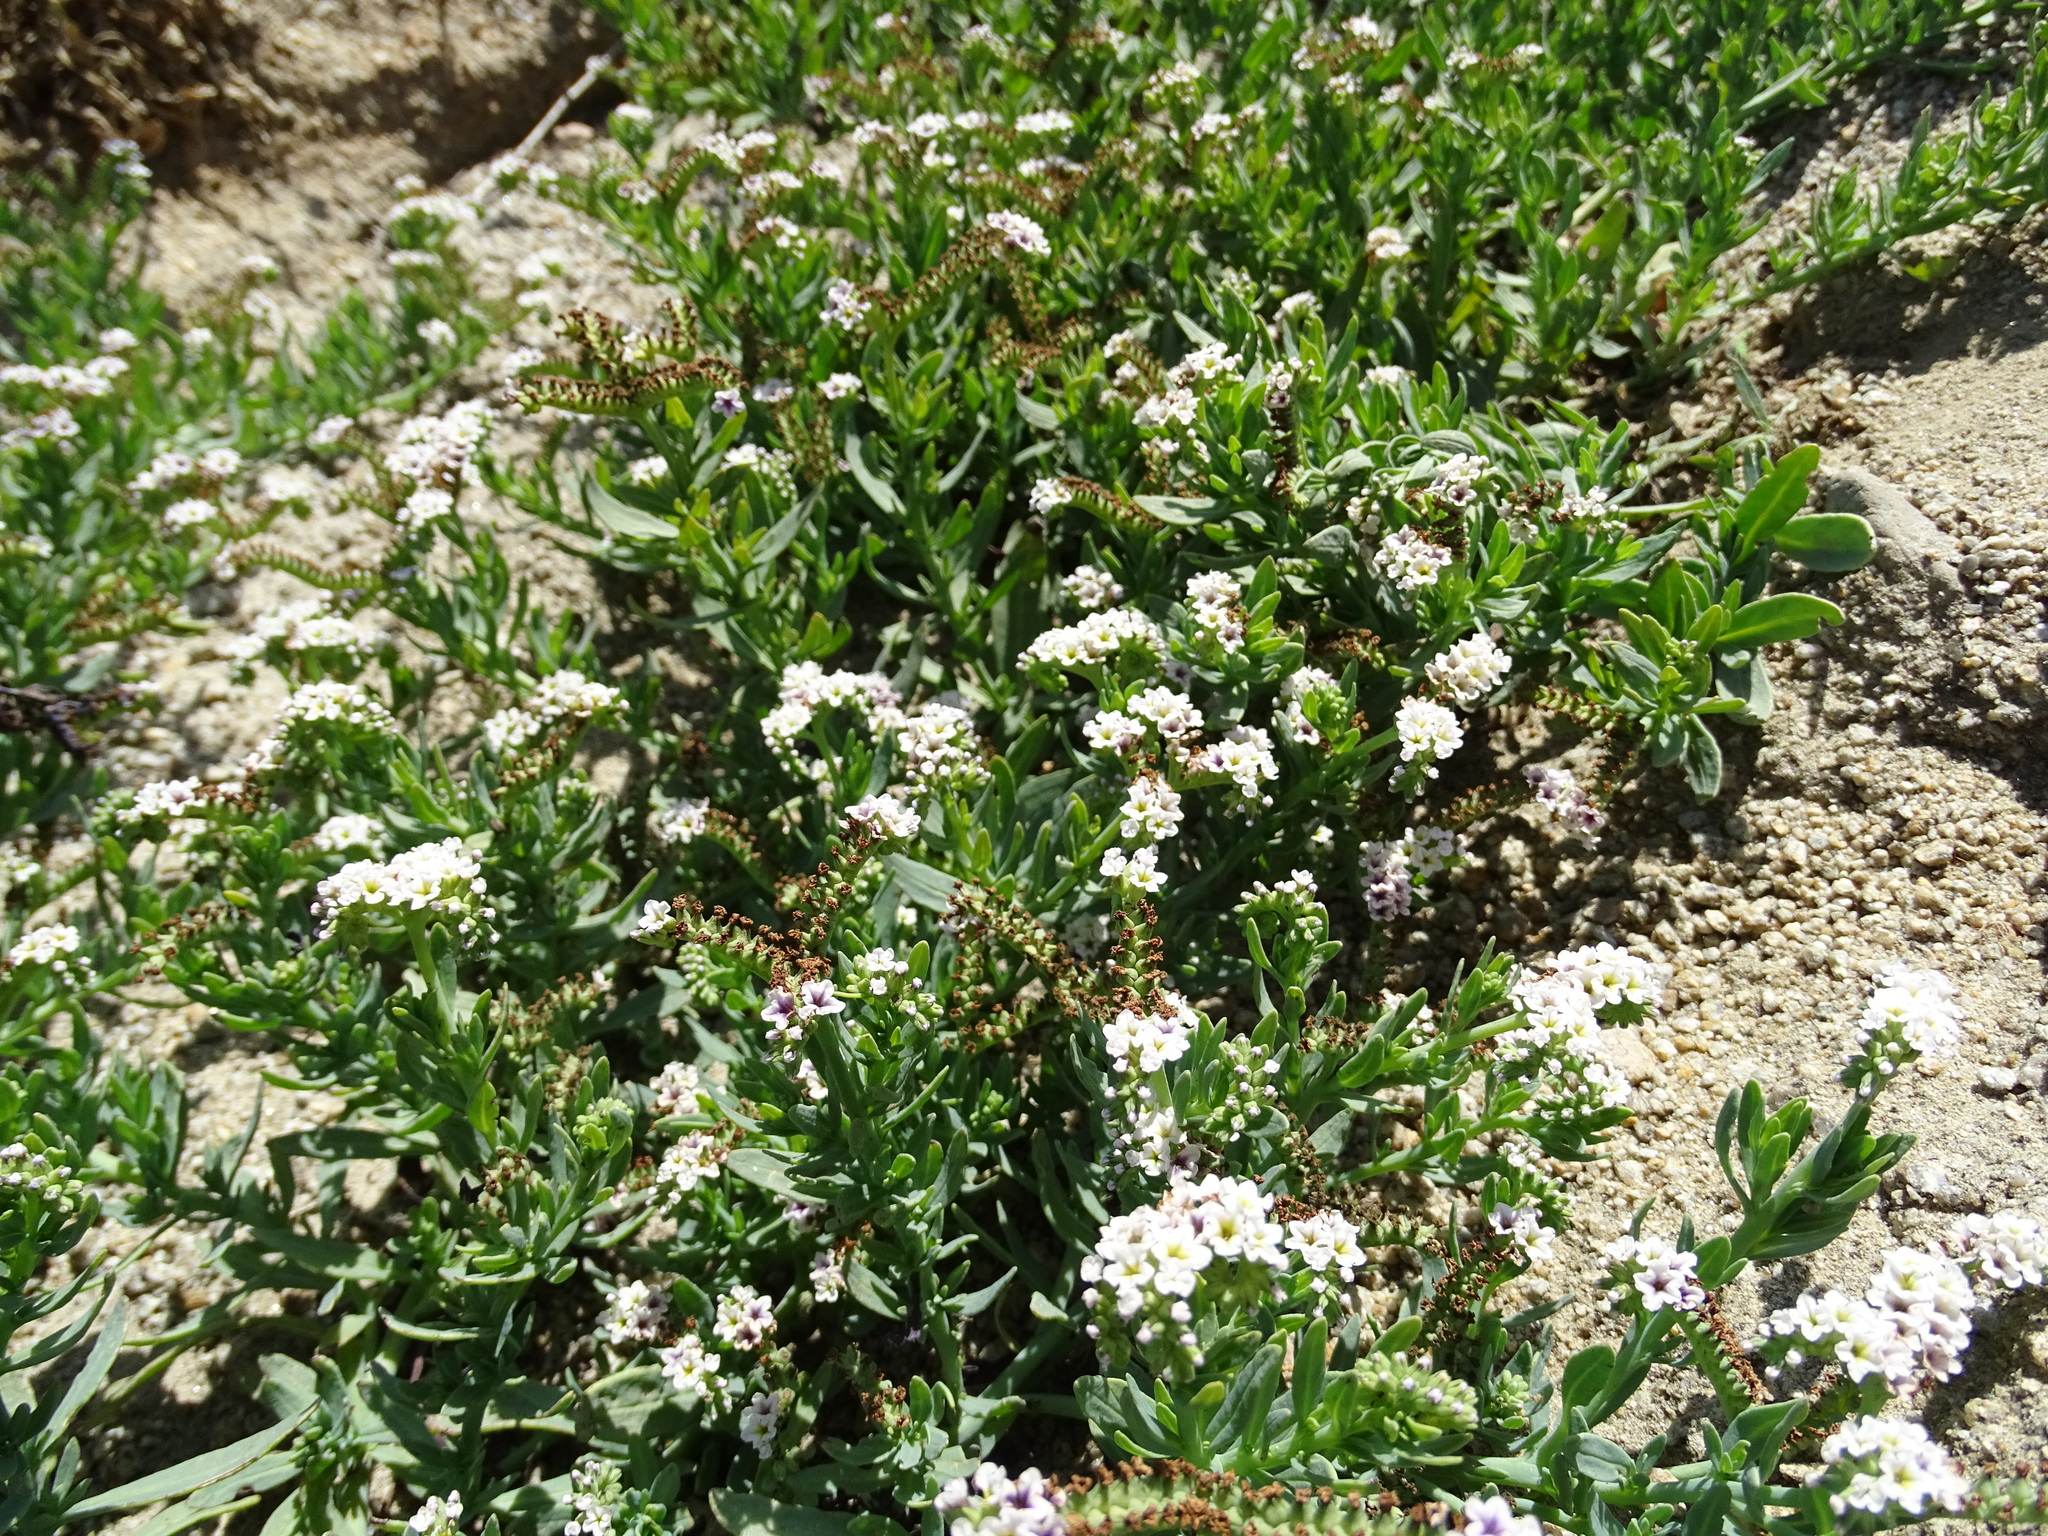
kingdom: Plantae
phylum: Tracheophyta
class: Magnoliopsida
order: Boraginales
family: Heliotropiaceae
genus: Heliotropium
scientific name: Heliotropium curassavicum
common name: Seaside heliotrope
